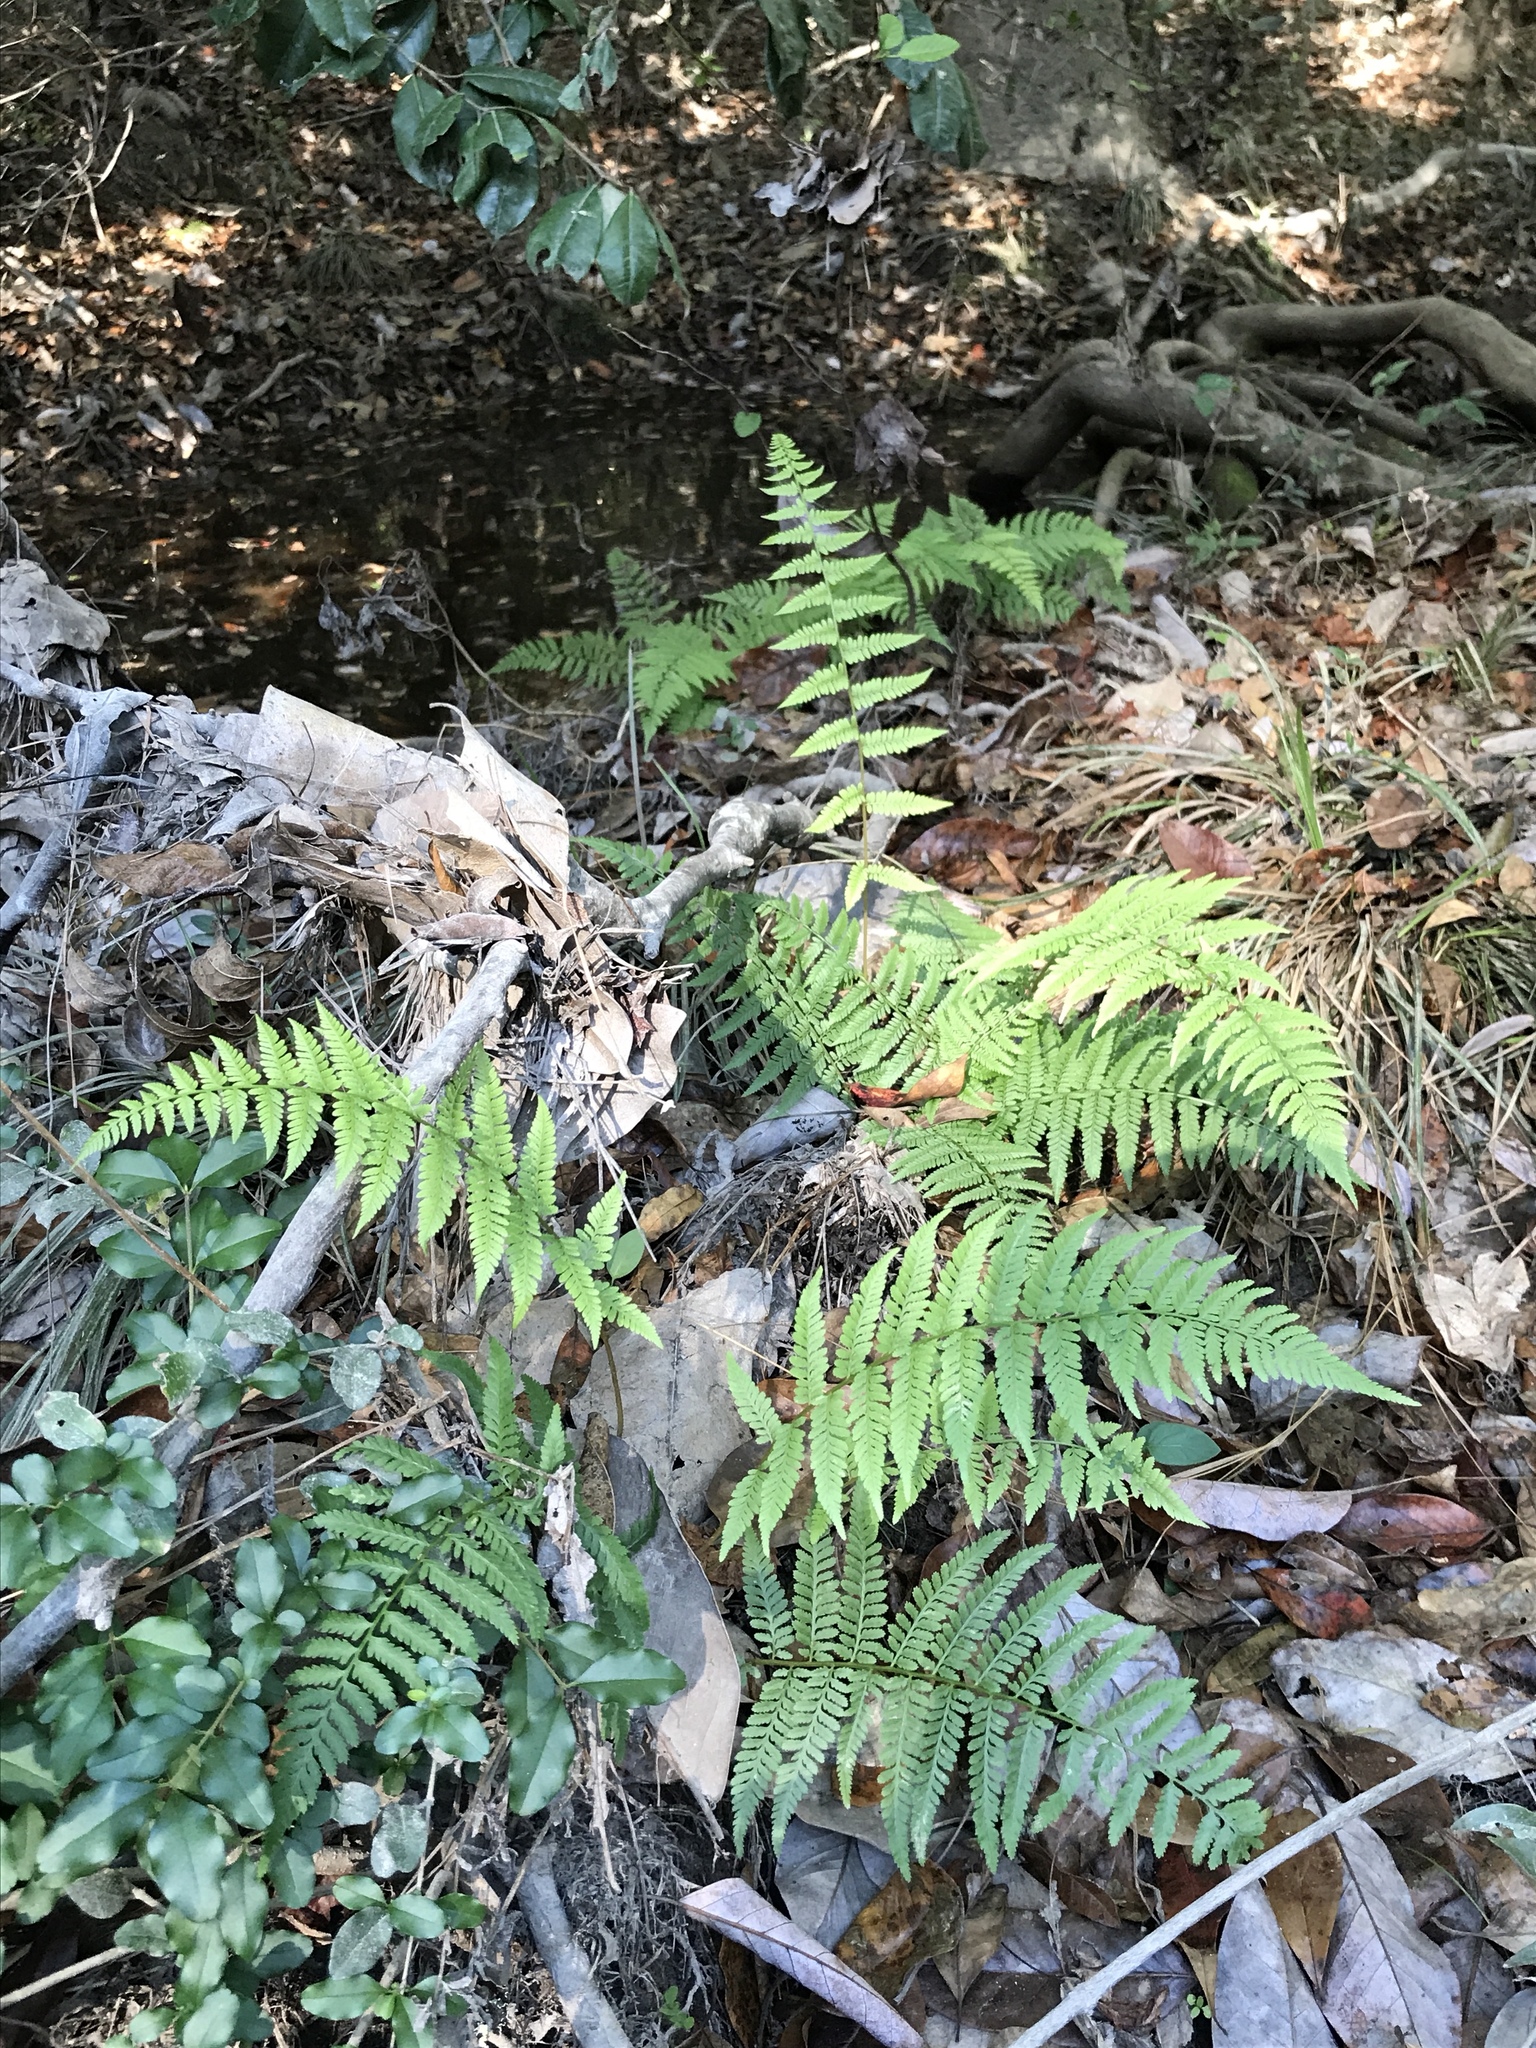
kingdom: Plantae
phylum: Tracheophyta
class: Polypodiopsida
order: Polypodiales
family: Athyriaceae
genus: Athyrium
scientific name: Athyrium asplenioides
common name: Southern lady fern
